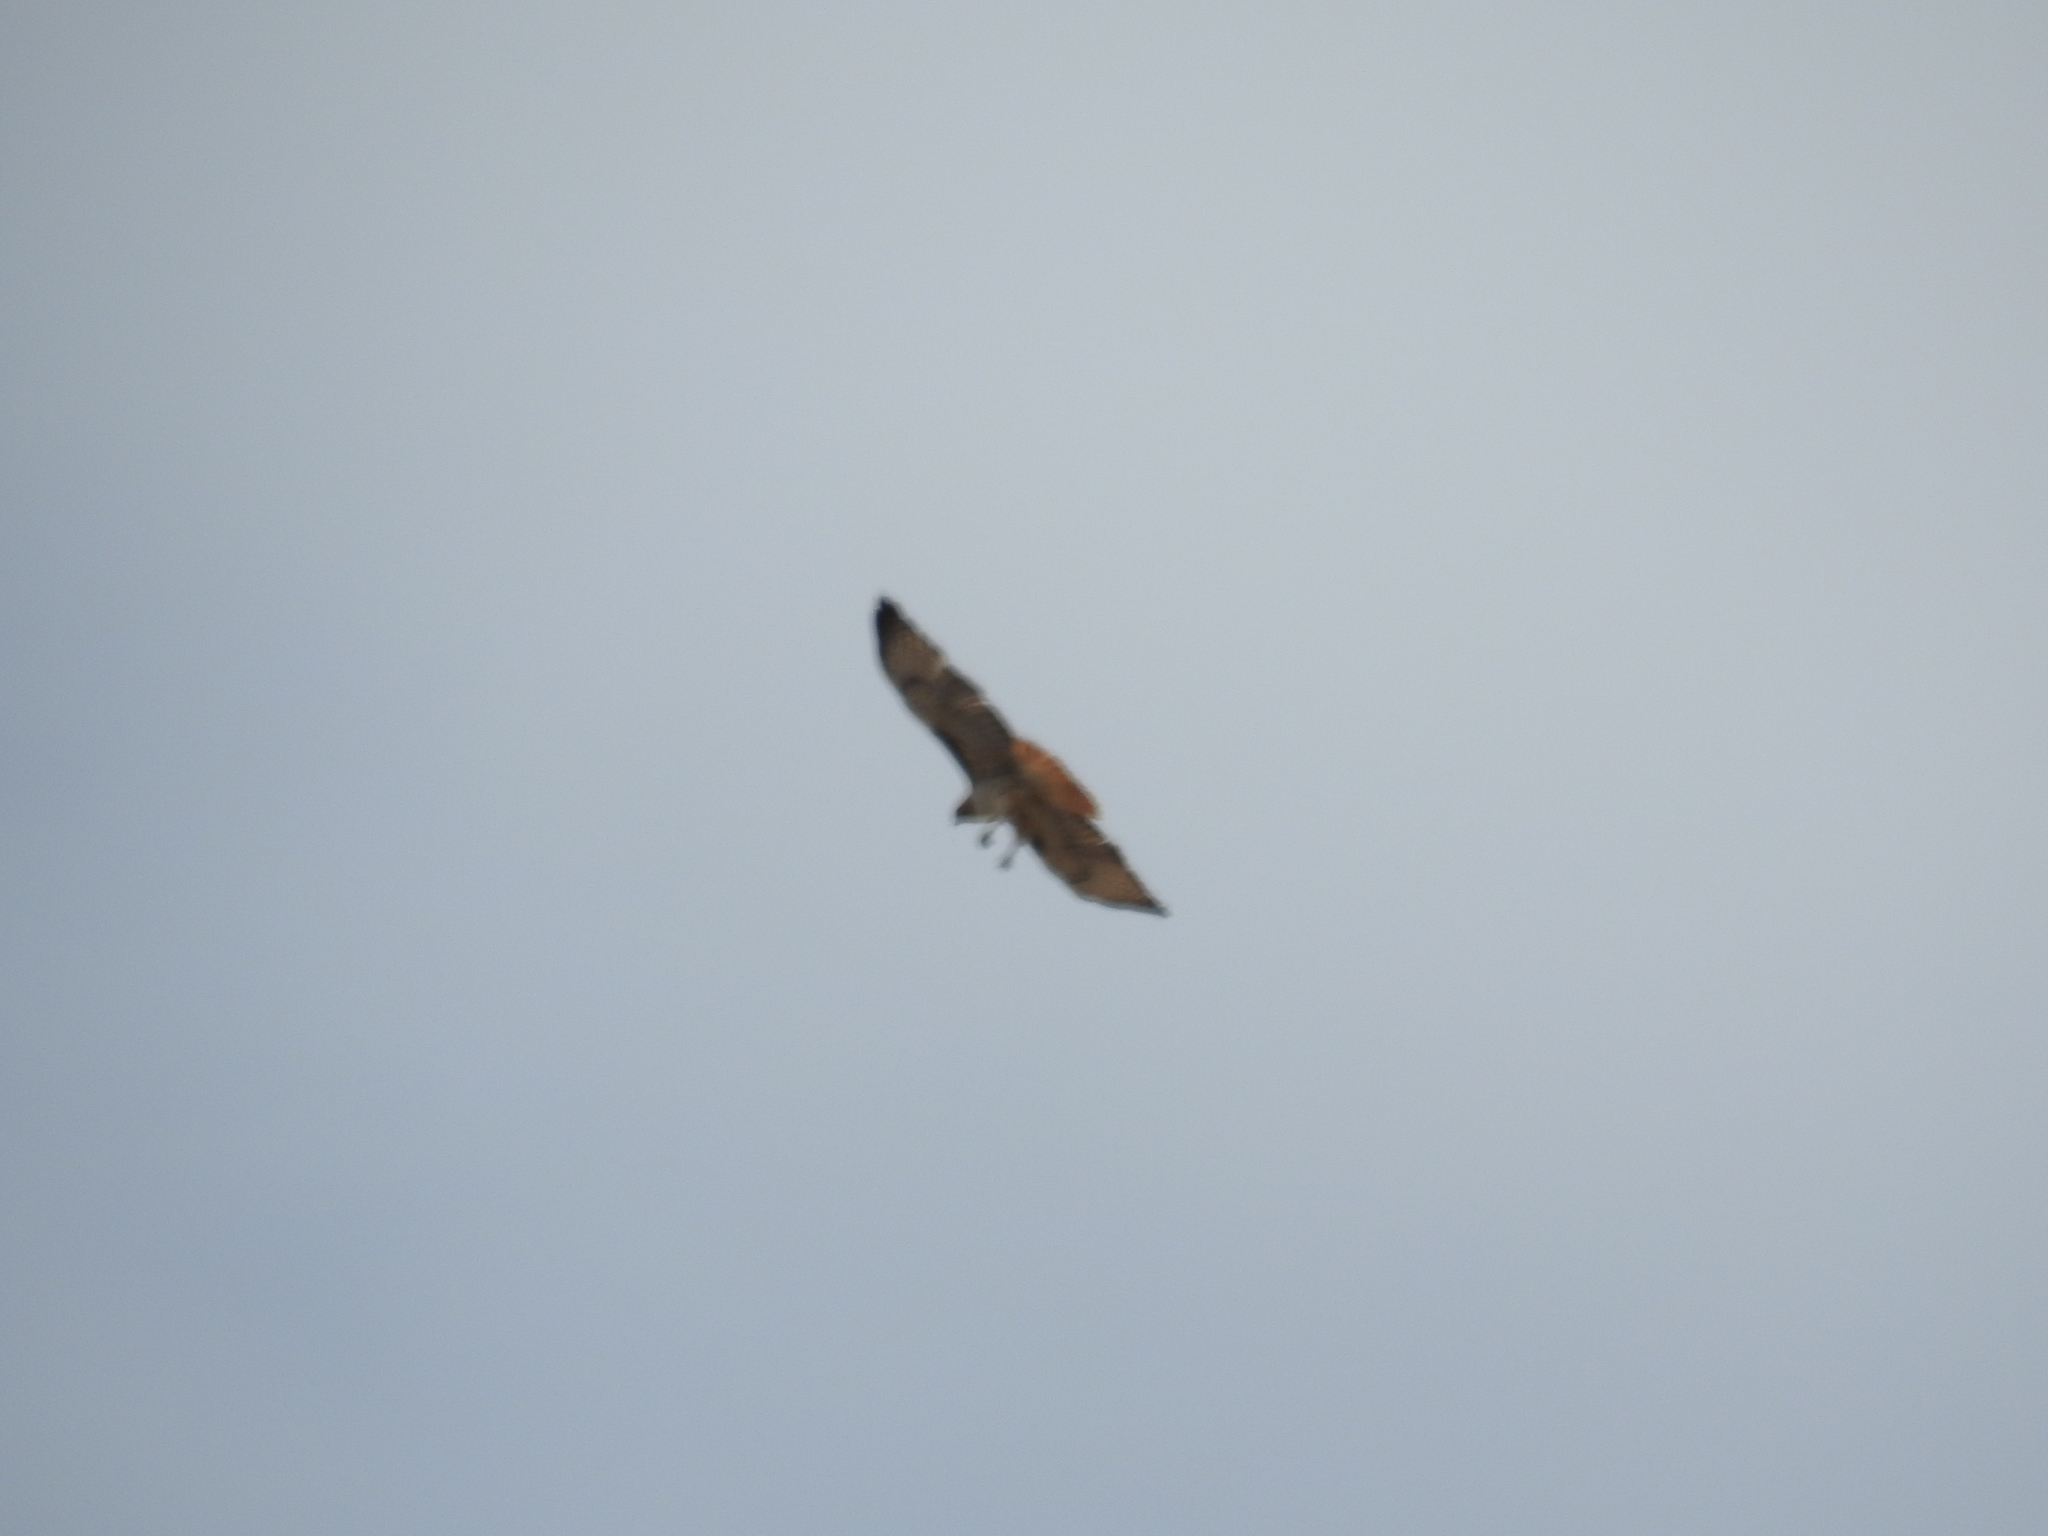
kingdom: Animalia
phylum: Chordata
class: Aves
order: Accipitriformes
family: Accipitridae
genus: Buteo
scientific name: Buteo jamaicensis
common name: Red-tailed hawk
